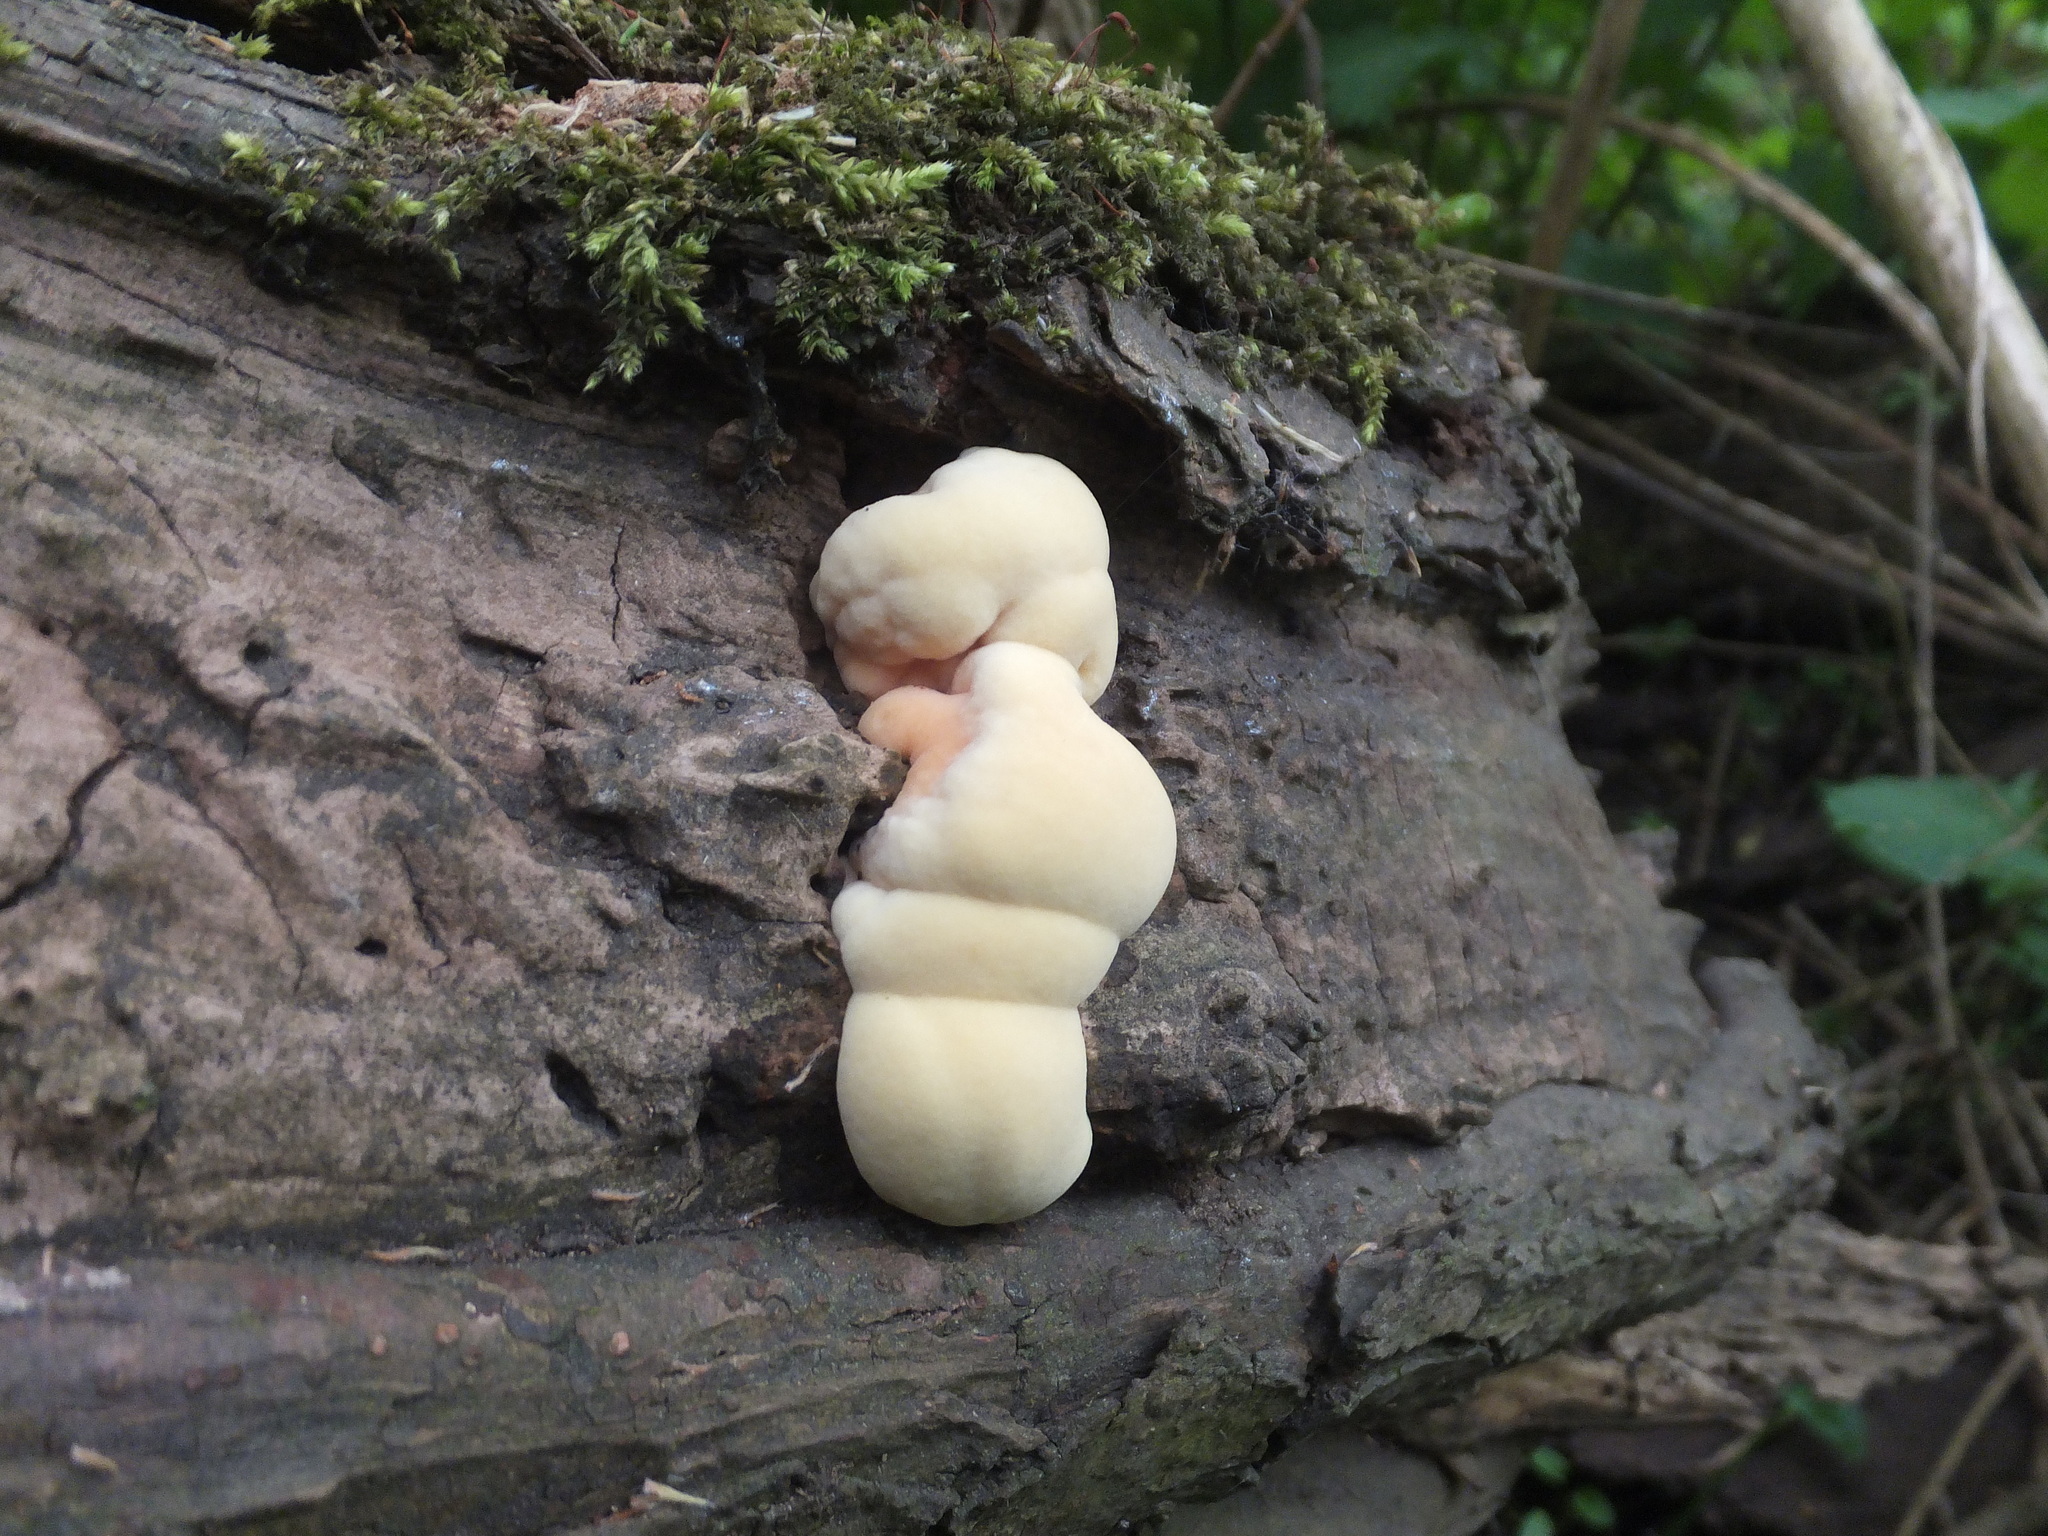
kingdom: Fungi
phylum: Basidiomycota
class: Agaricomycetes
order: Polyporales
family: Laetiporaceae
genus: Laetiporus
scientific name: Laetiporus sulphureus
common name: Chicken of the woods
